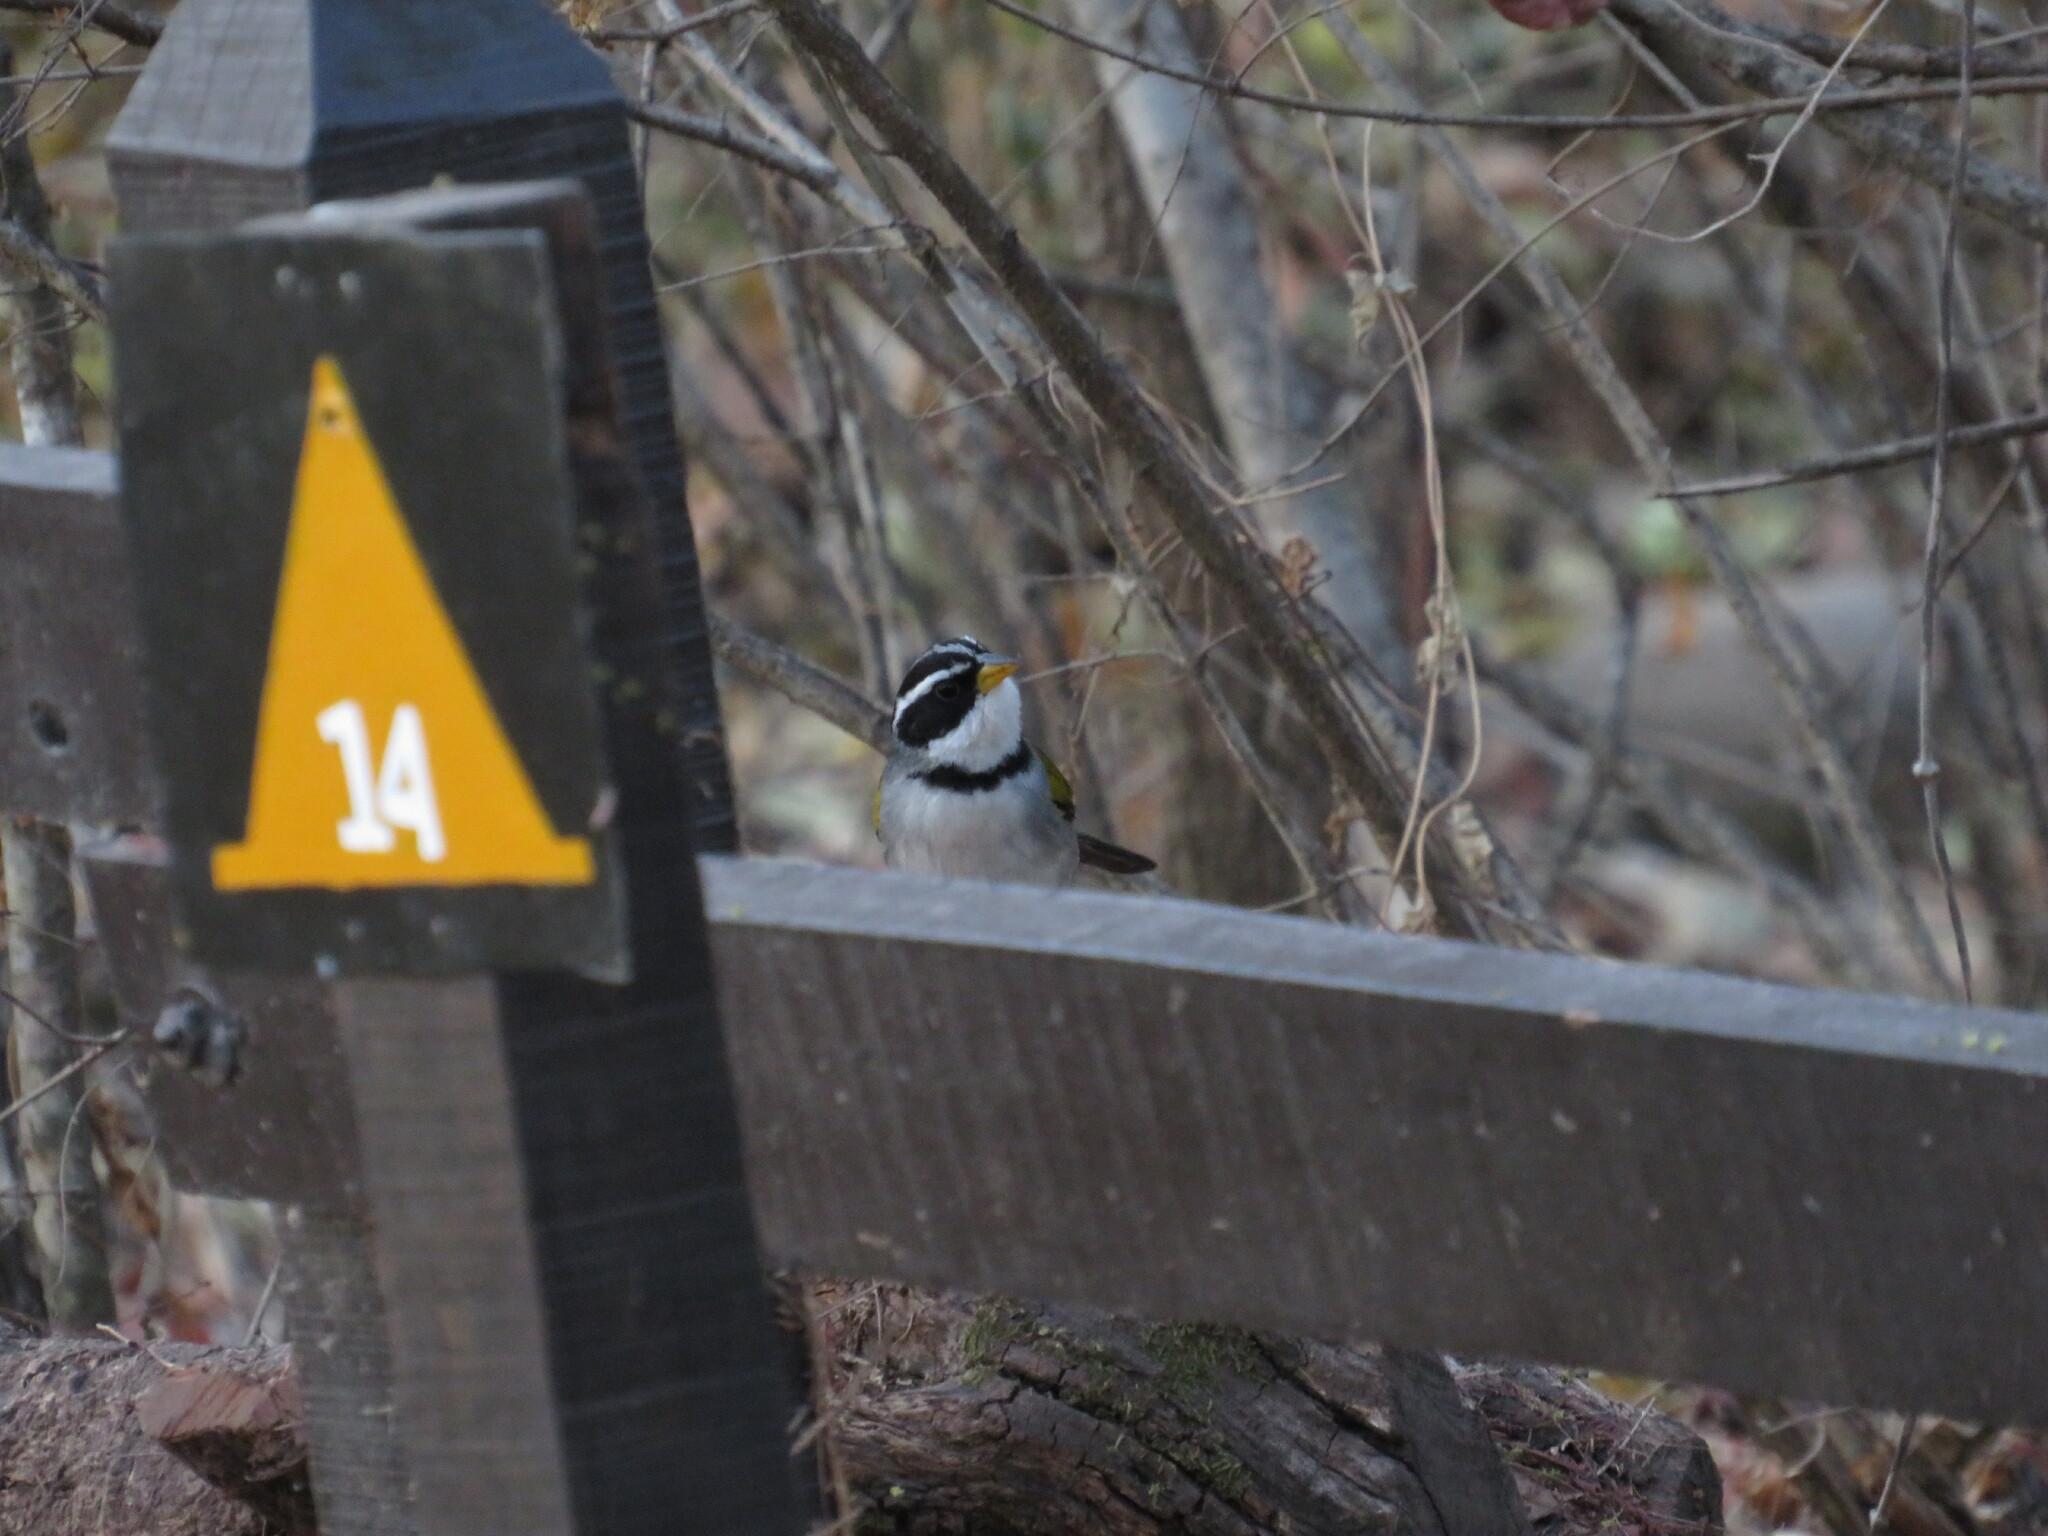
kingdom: Animalia
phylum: Chordata
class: Aves
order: Passeriformes
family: Passerellidae
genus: Arremon
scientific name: Arremon dorbignii
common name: Moss-backed sparrow
